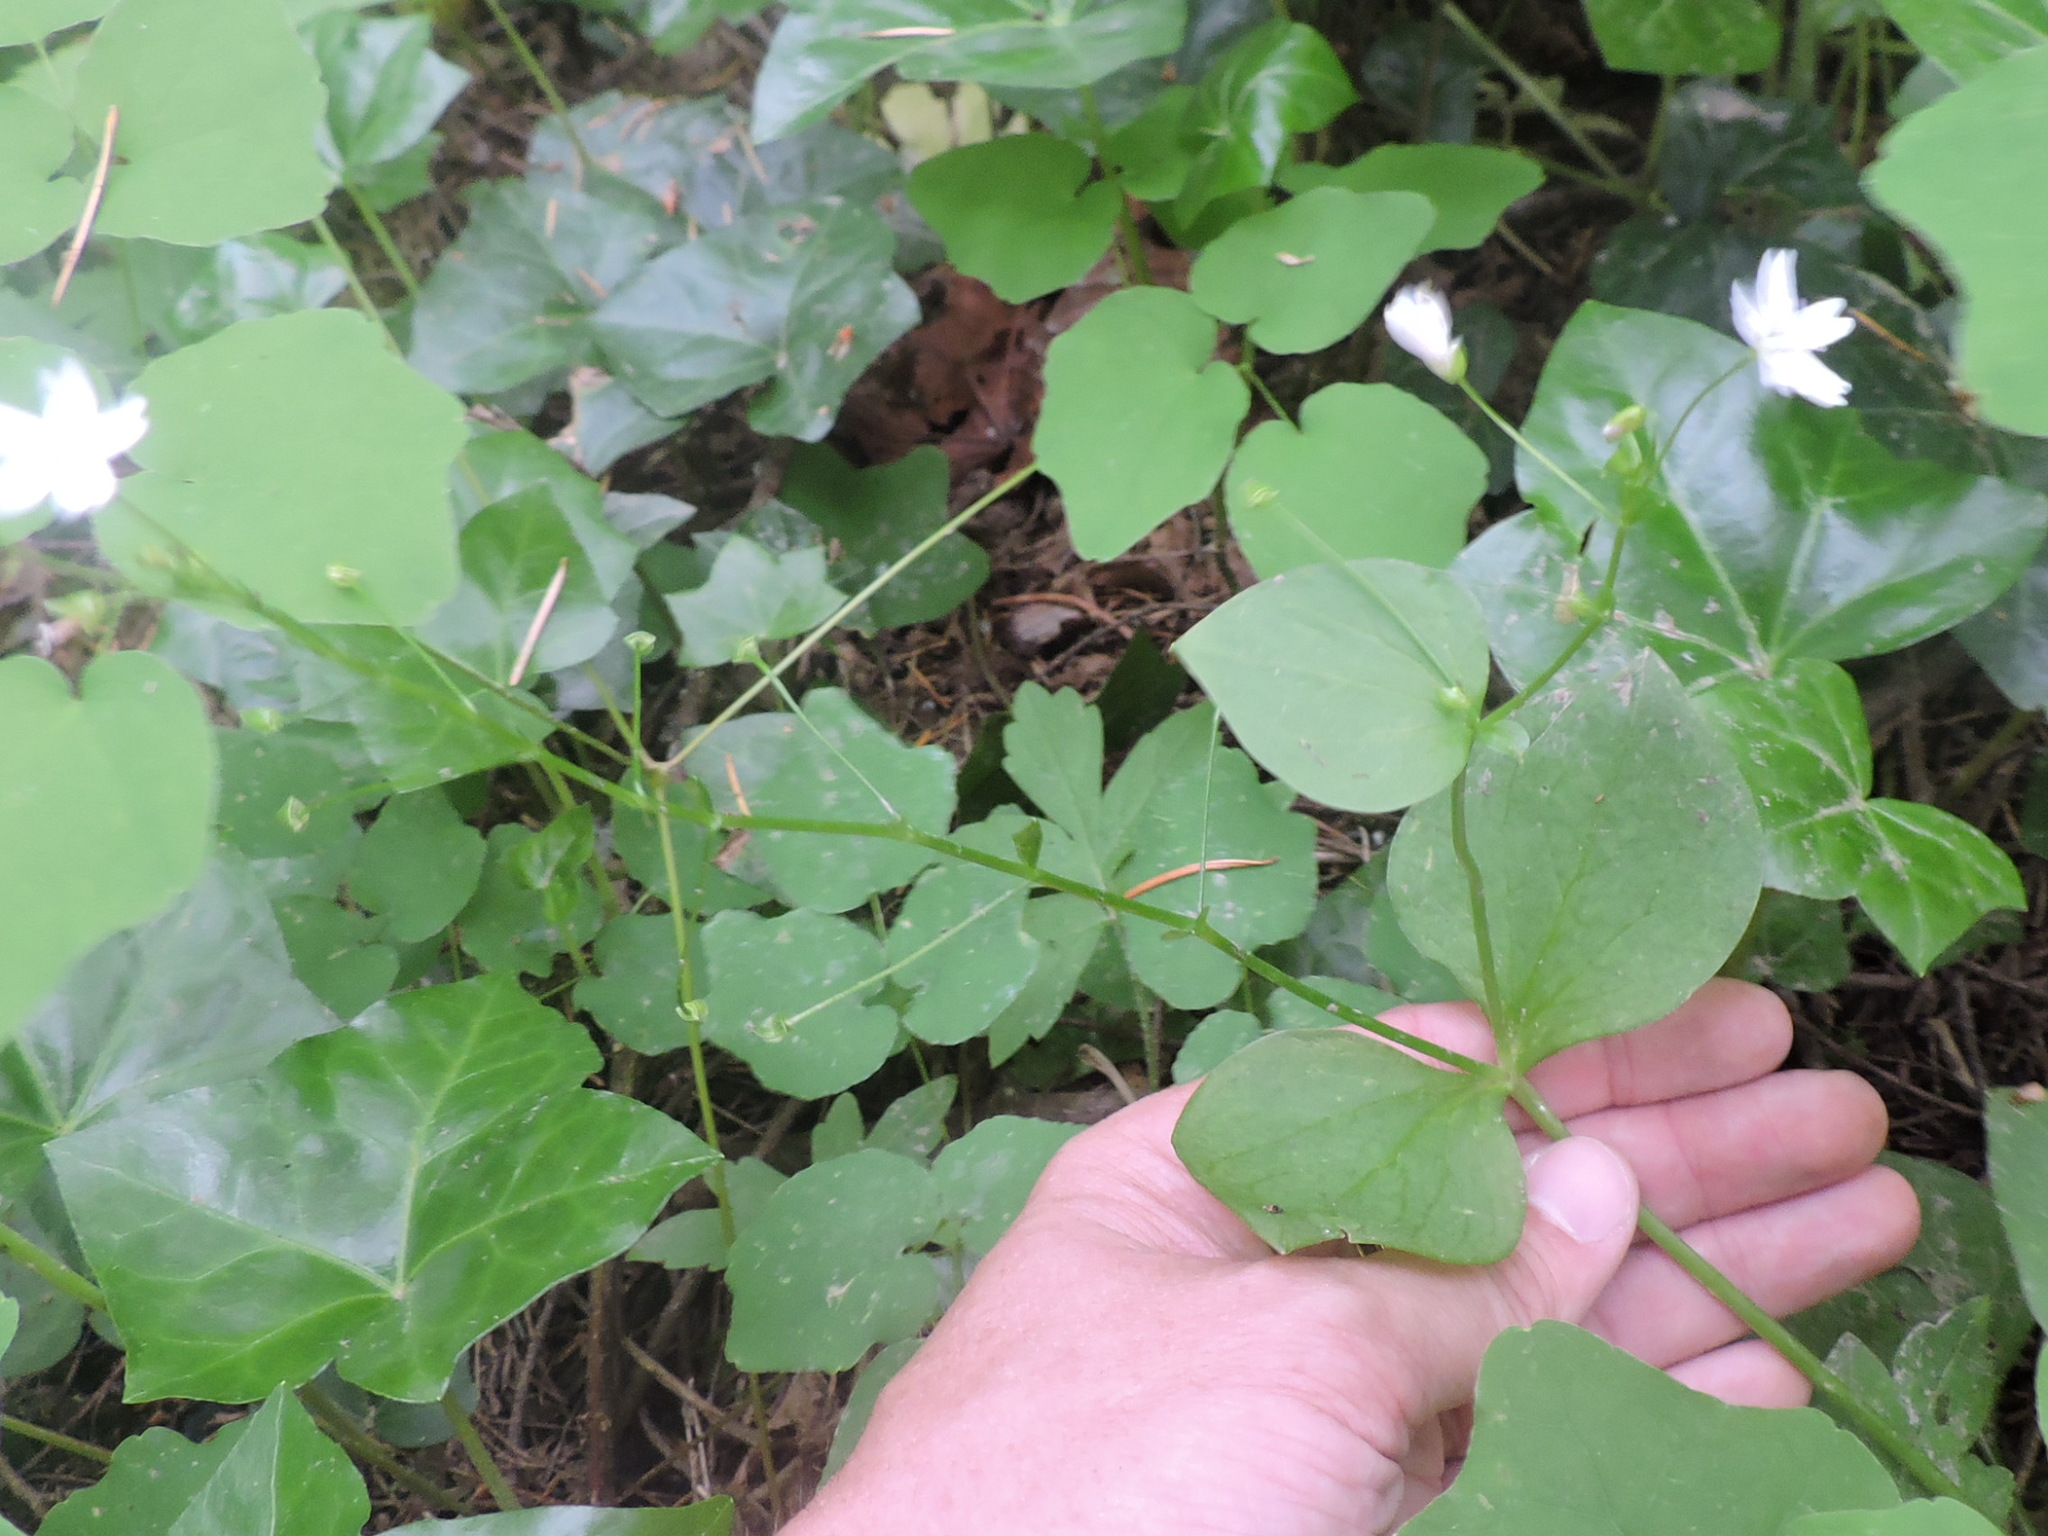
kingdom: Plantae
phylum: Tracheophyta
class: Magnoliopsida
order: Caryophyllales
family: Montiaceae
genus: Claytonia
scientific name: Claytonia sibirica
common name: Pink purslane
